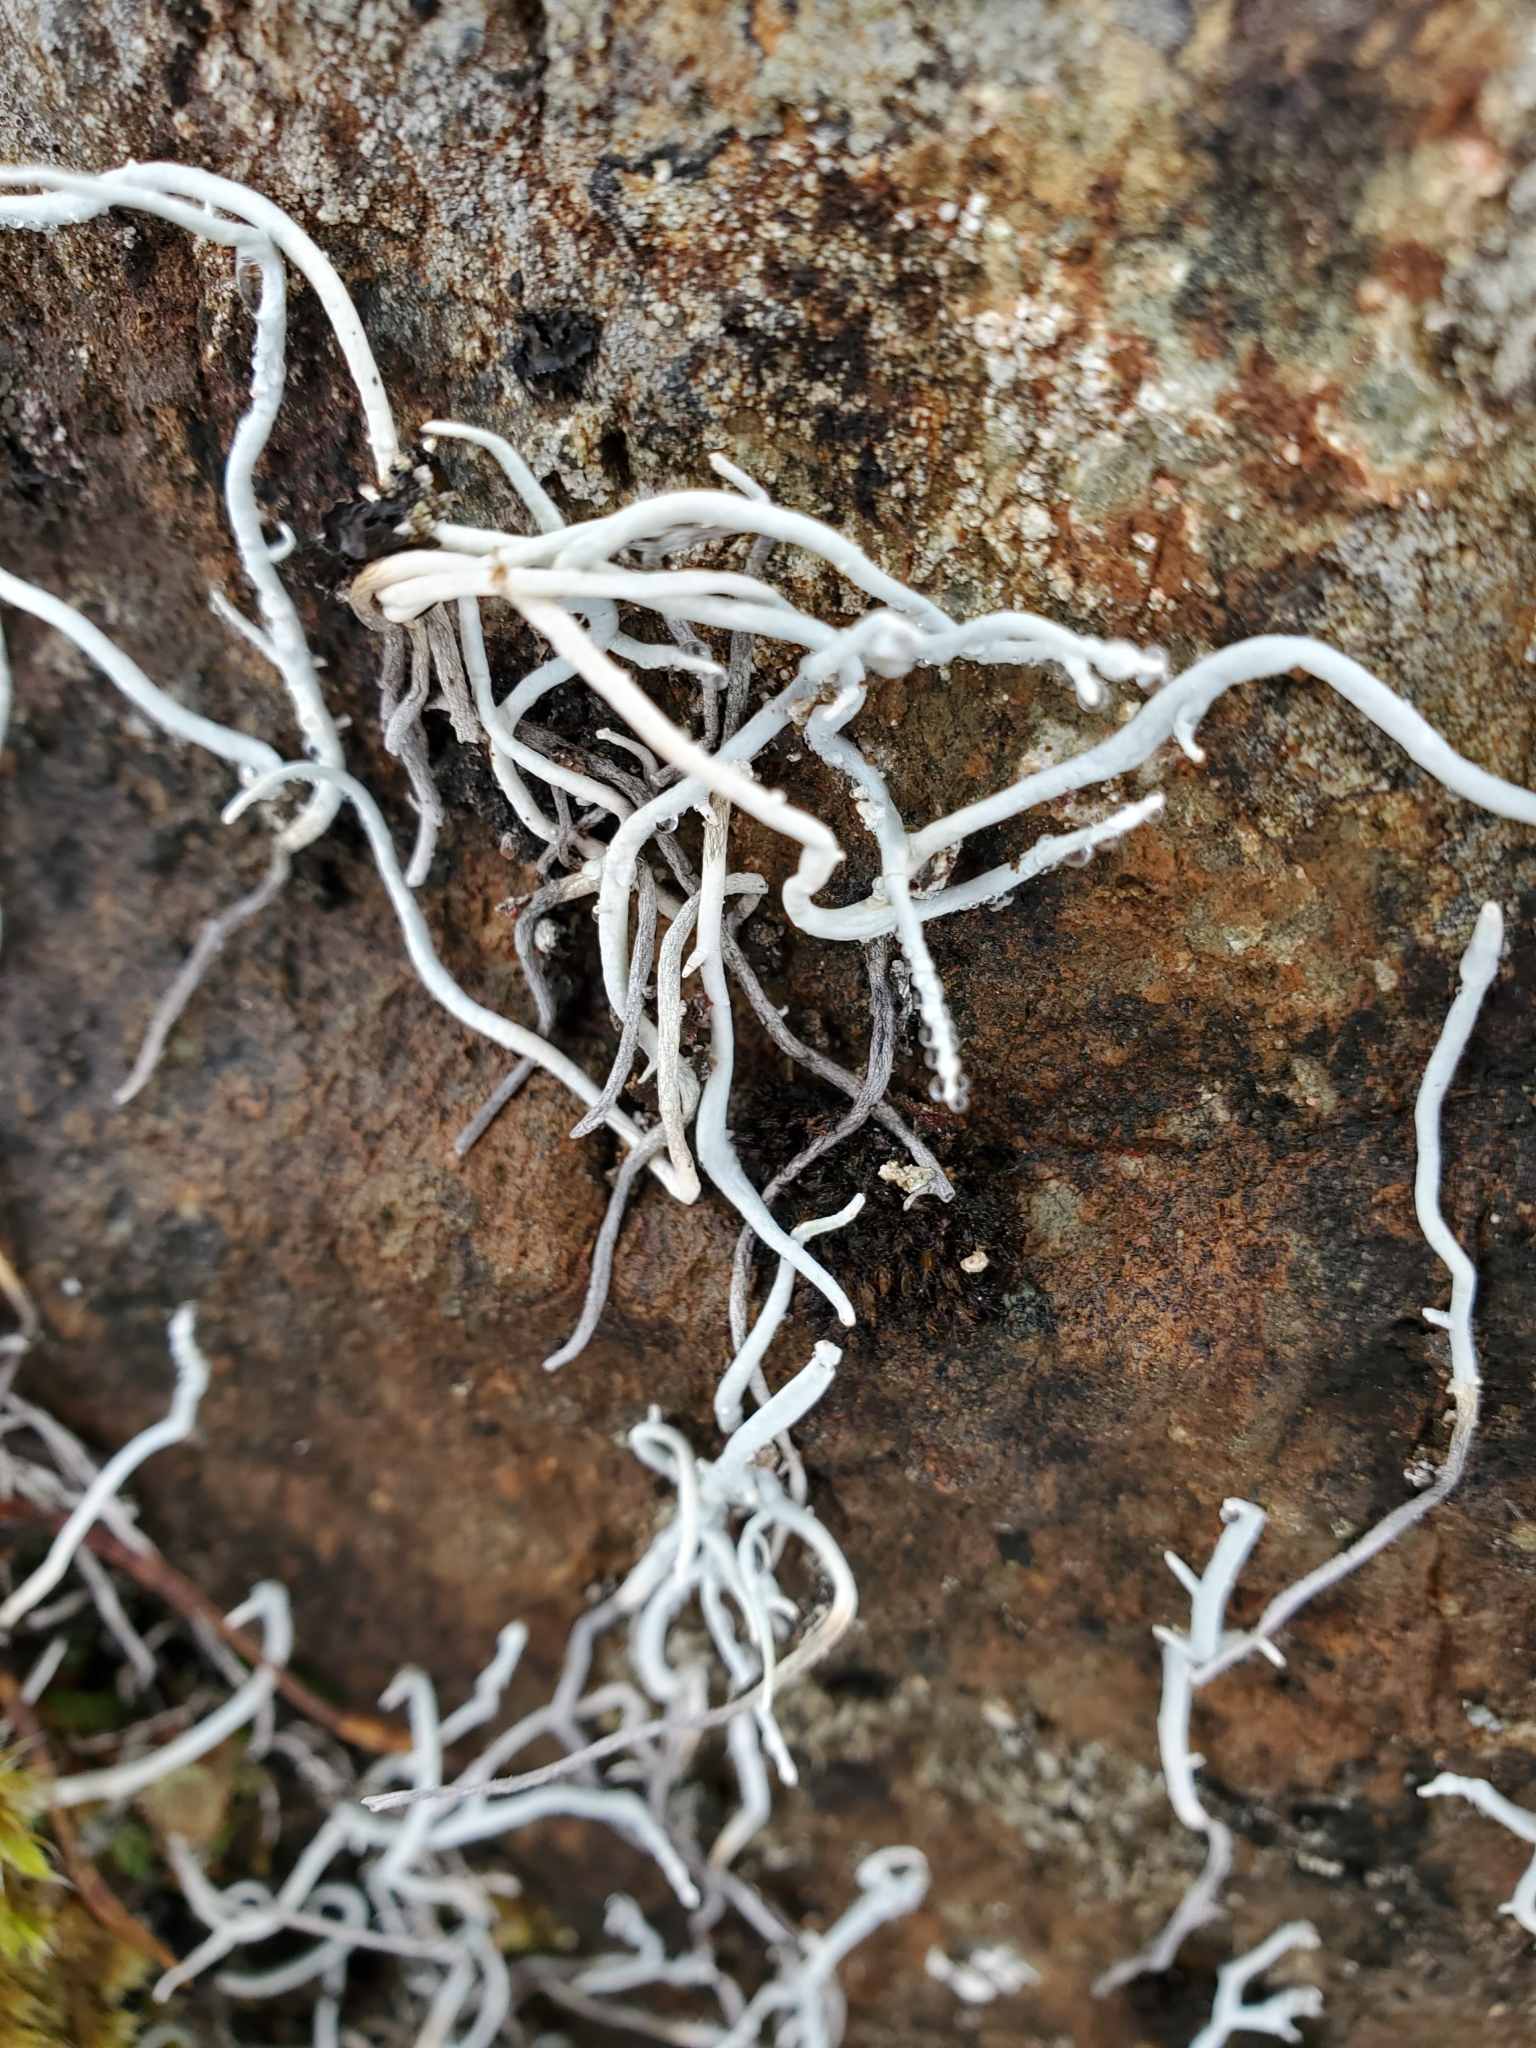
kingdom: Fungi
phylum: Ascomycota
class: Lecanoromycetes
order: Pertusariales
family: Icmadophilaceae
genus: Thamnolia
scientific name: Thamnolia vermicularis
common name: Whiteworm lichen
